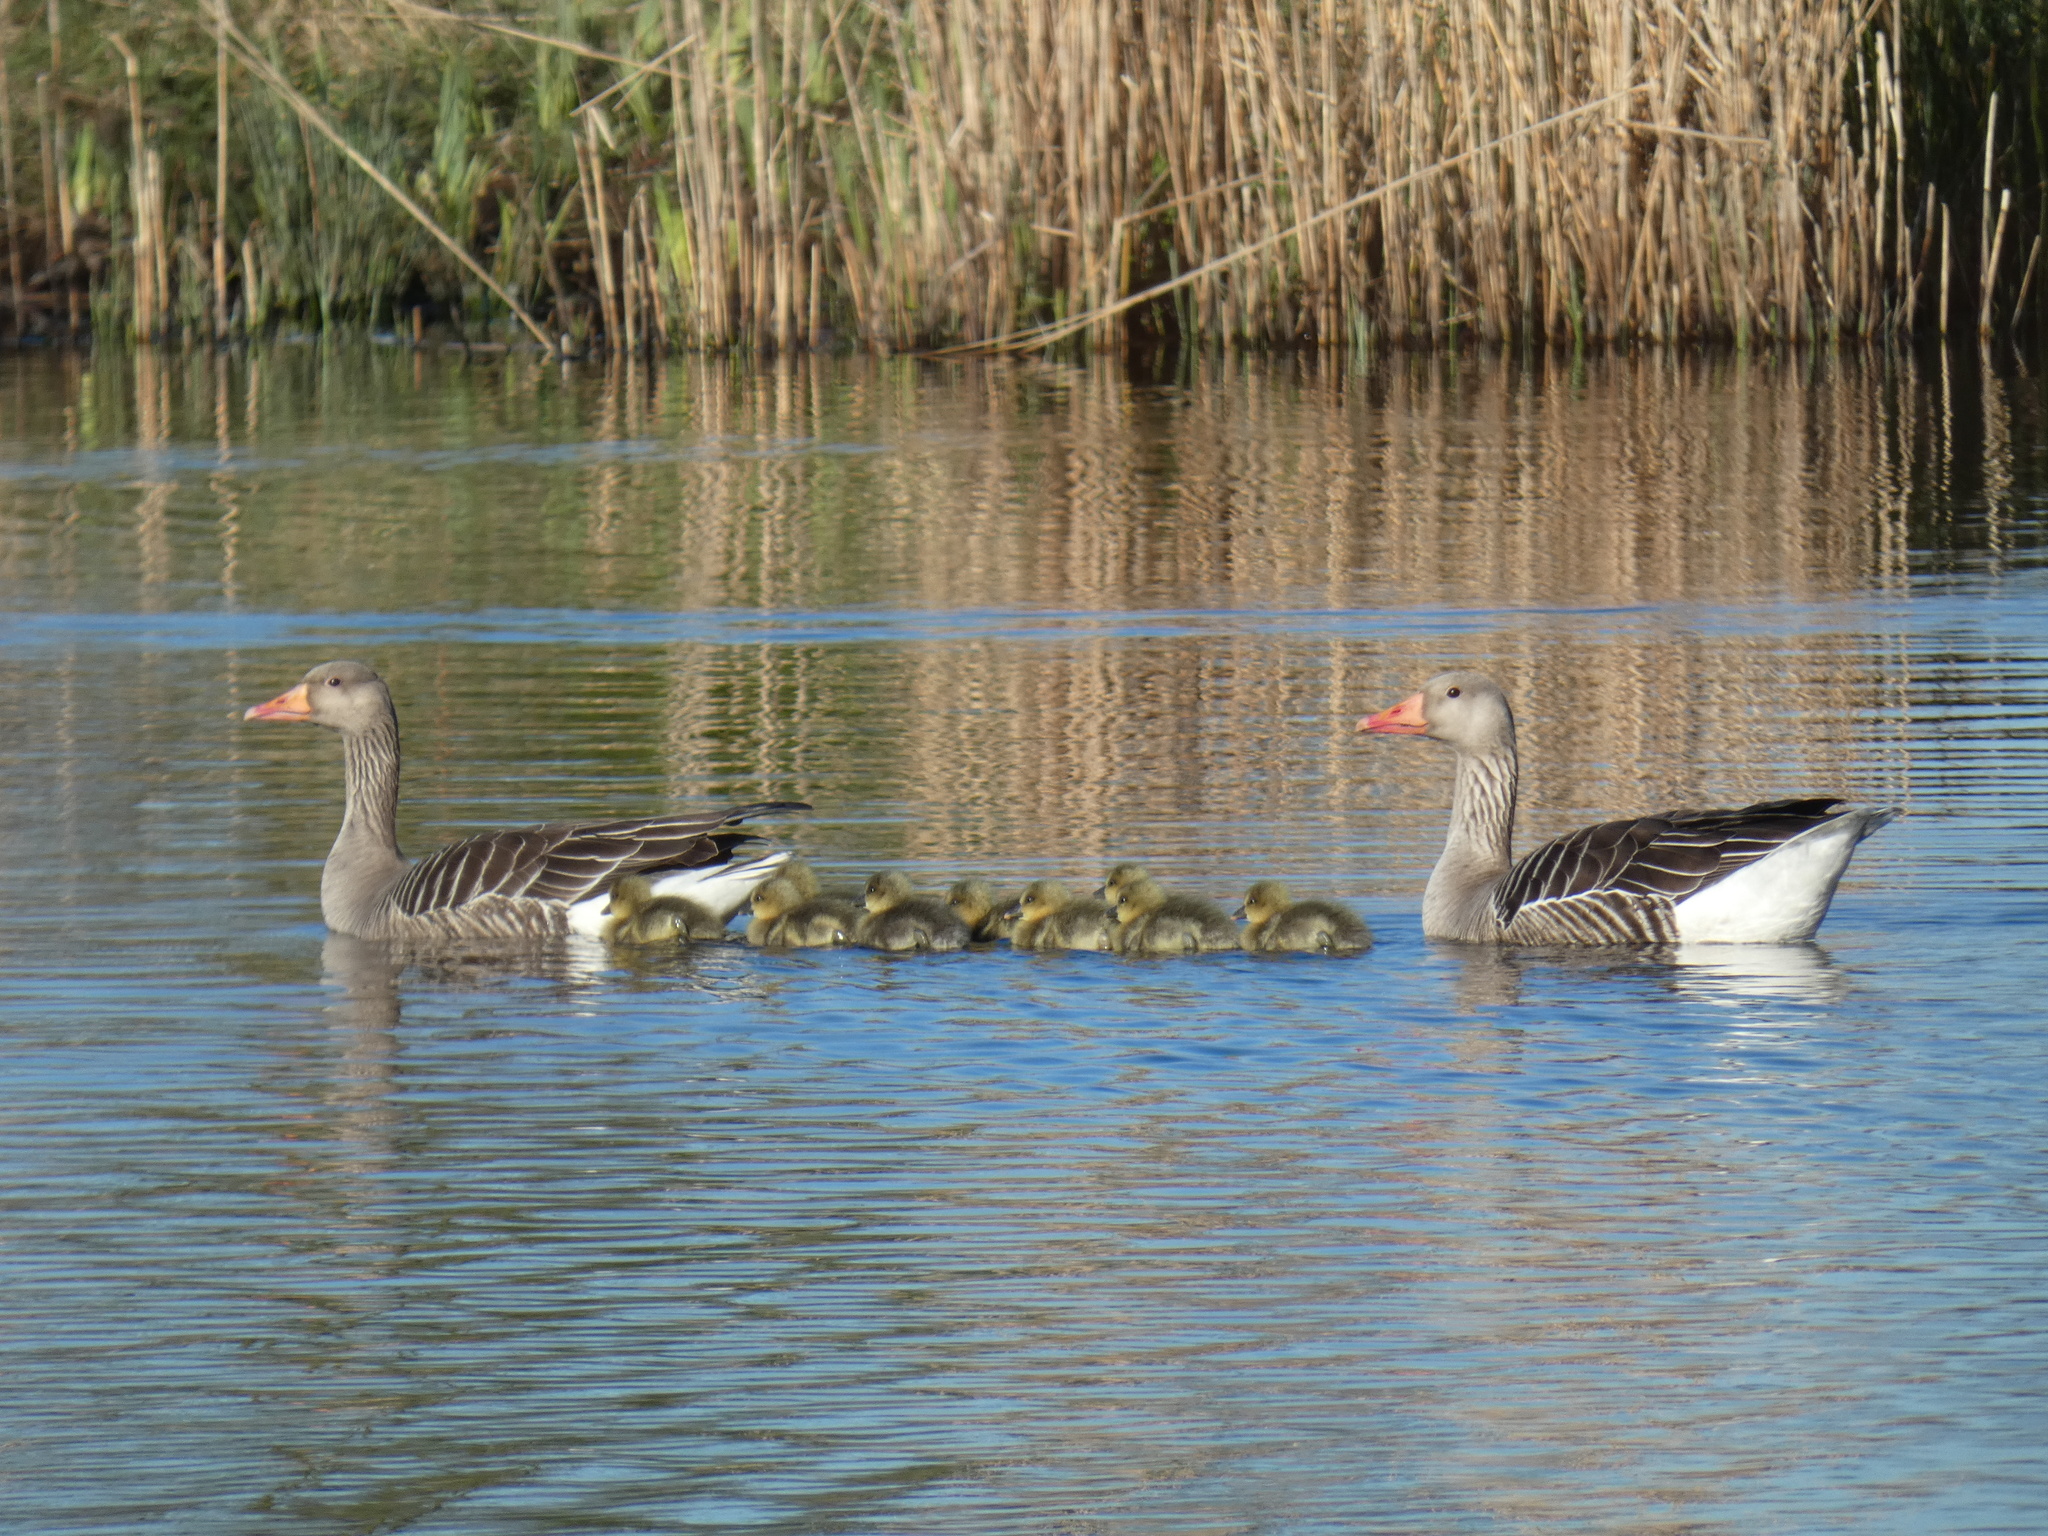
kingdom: Animalia
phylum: Chordata
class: Aves
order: Anseriformes
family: Anatidae
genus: Anser
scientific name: Anser anser
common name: Greylag goose
